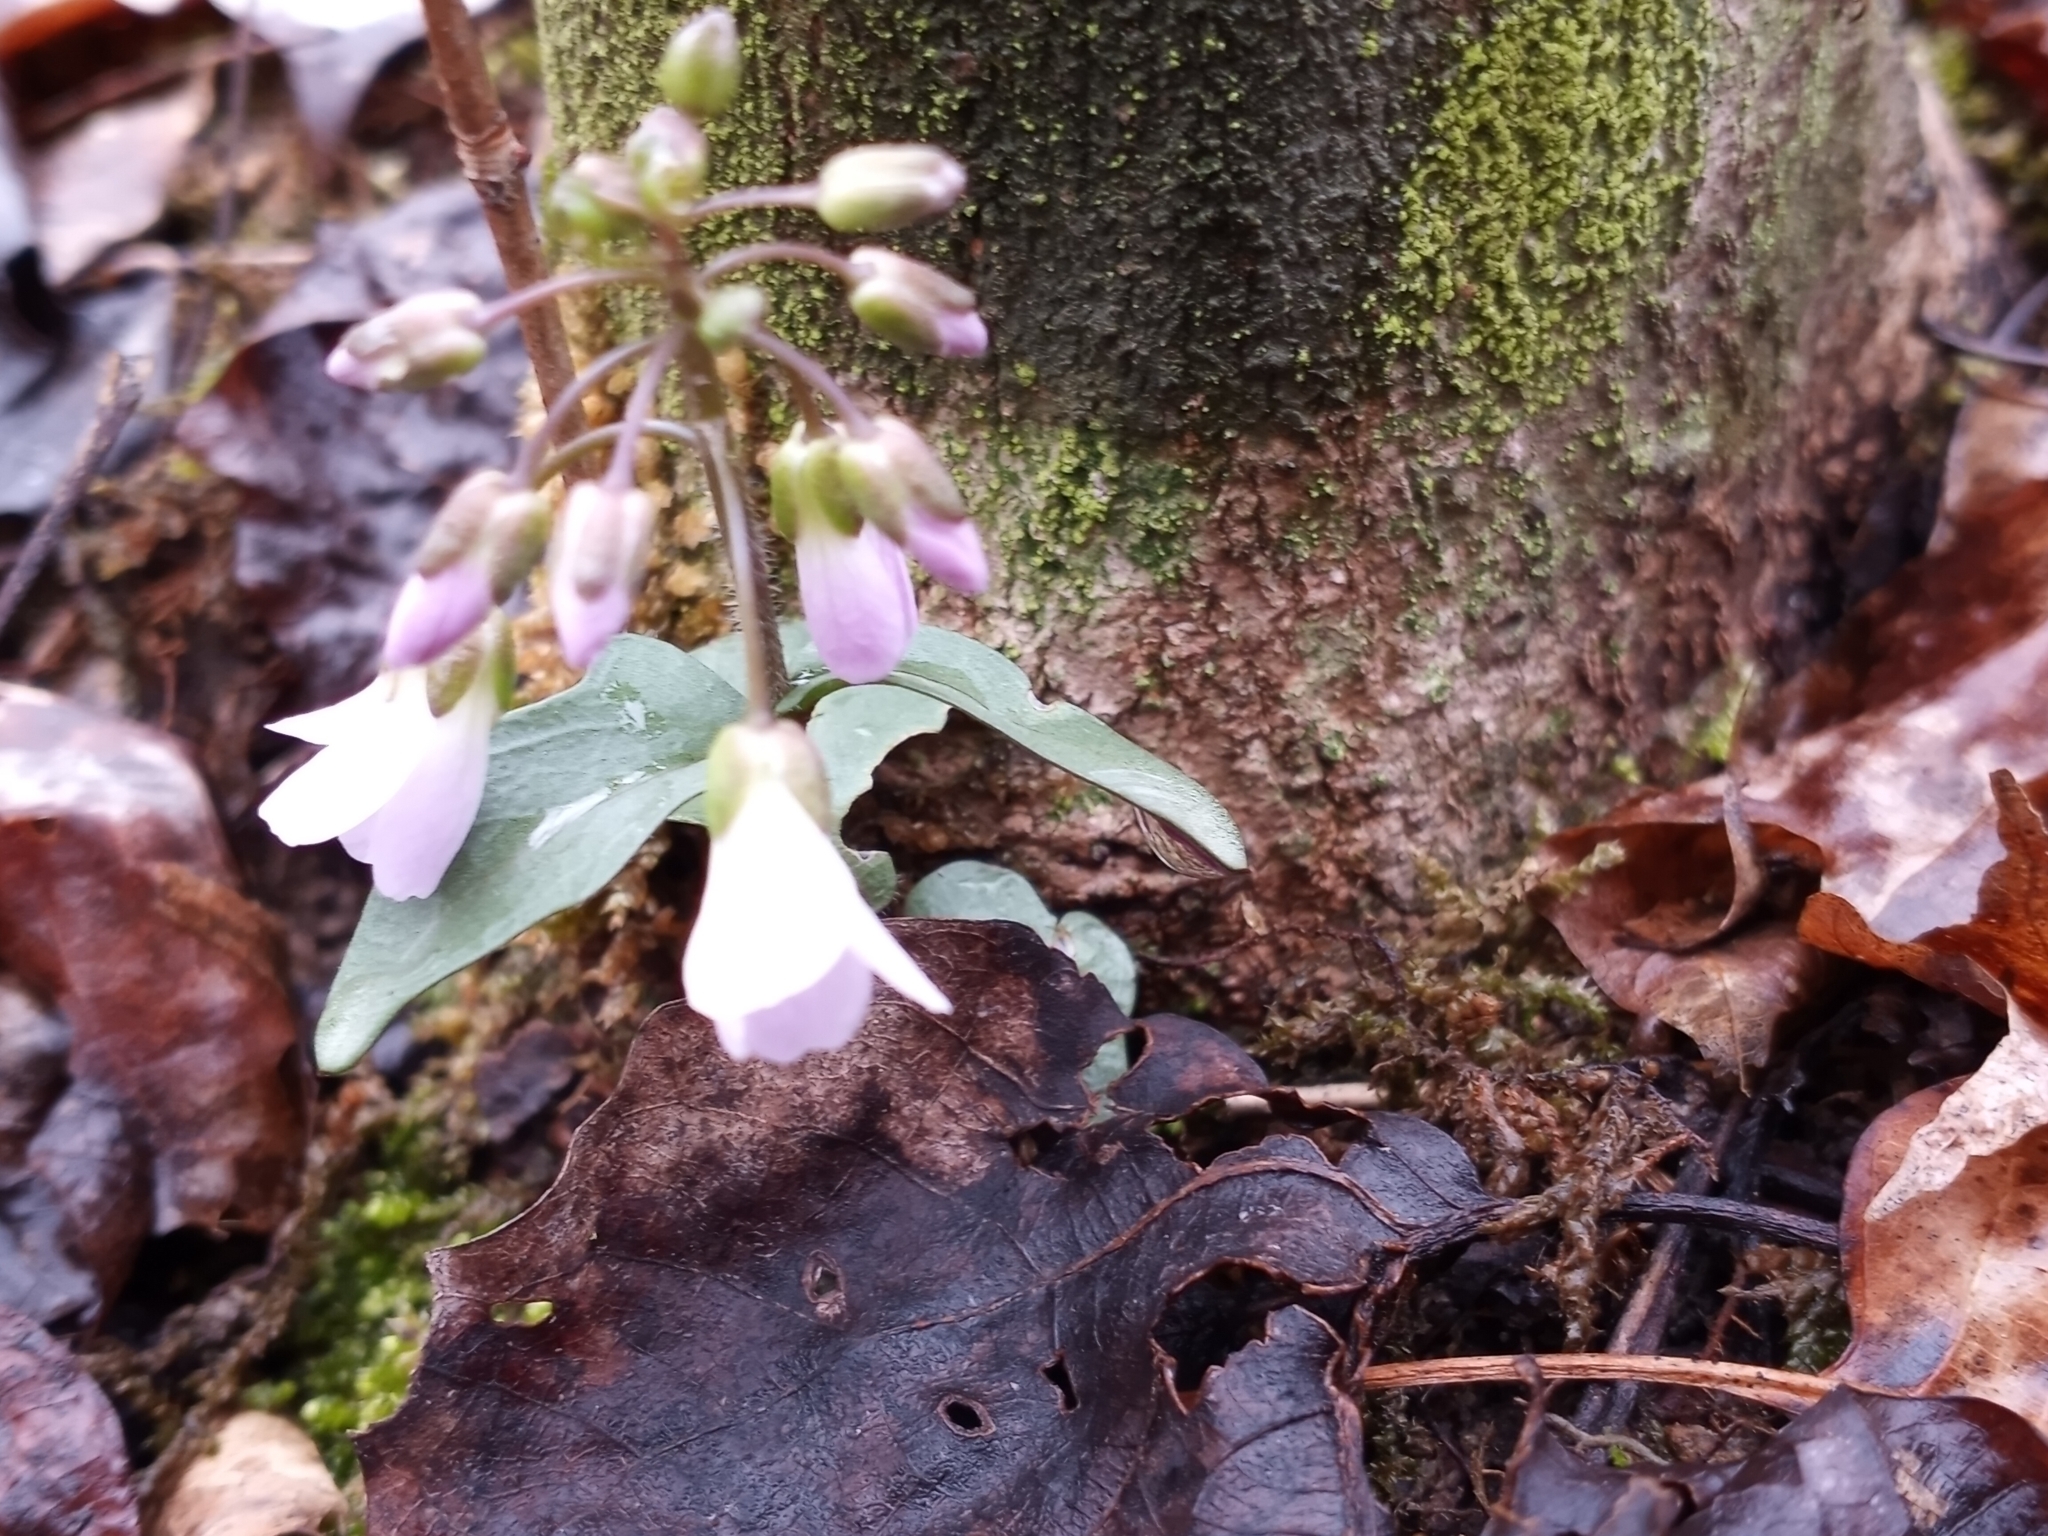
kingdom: Plantae
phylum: Tracheophyta
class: Magnoliopsida
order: Brassicales
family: Brassicaceae
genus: Cardamine
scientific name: Cardamine douglassii
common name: Purple cress
